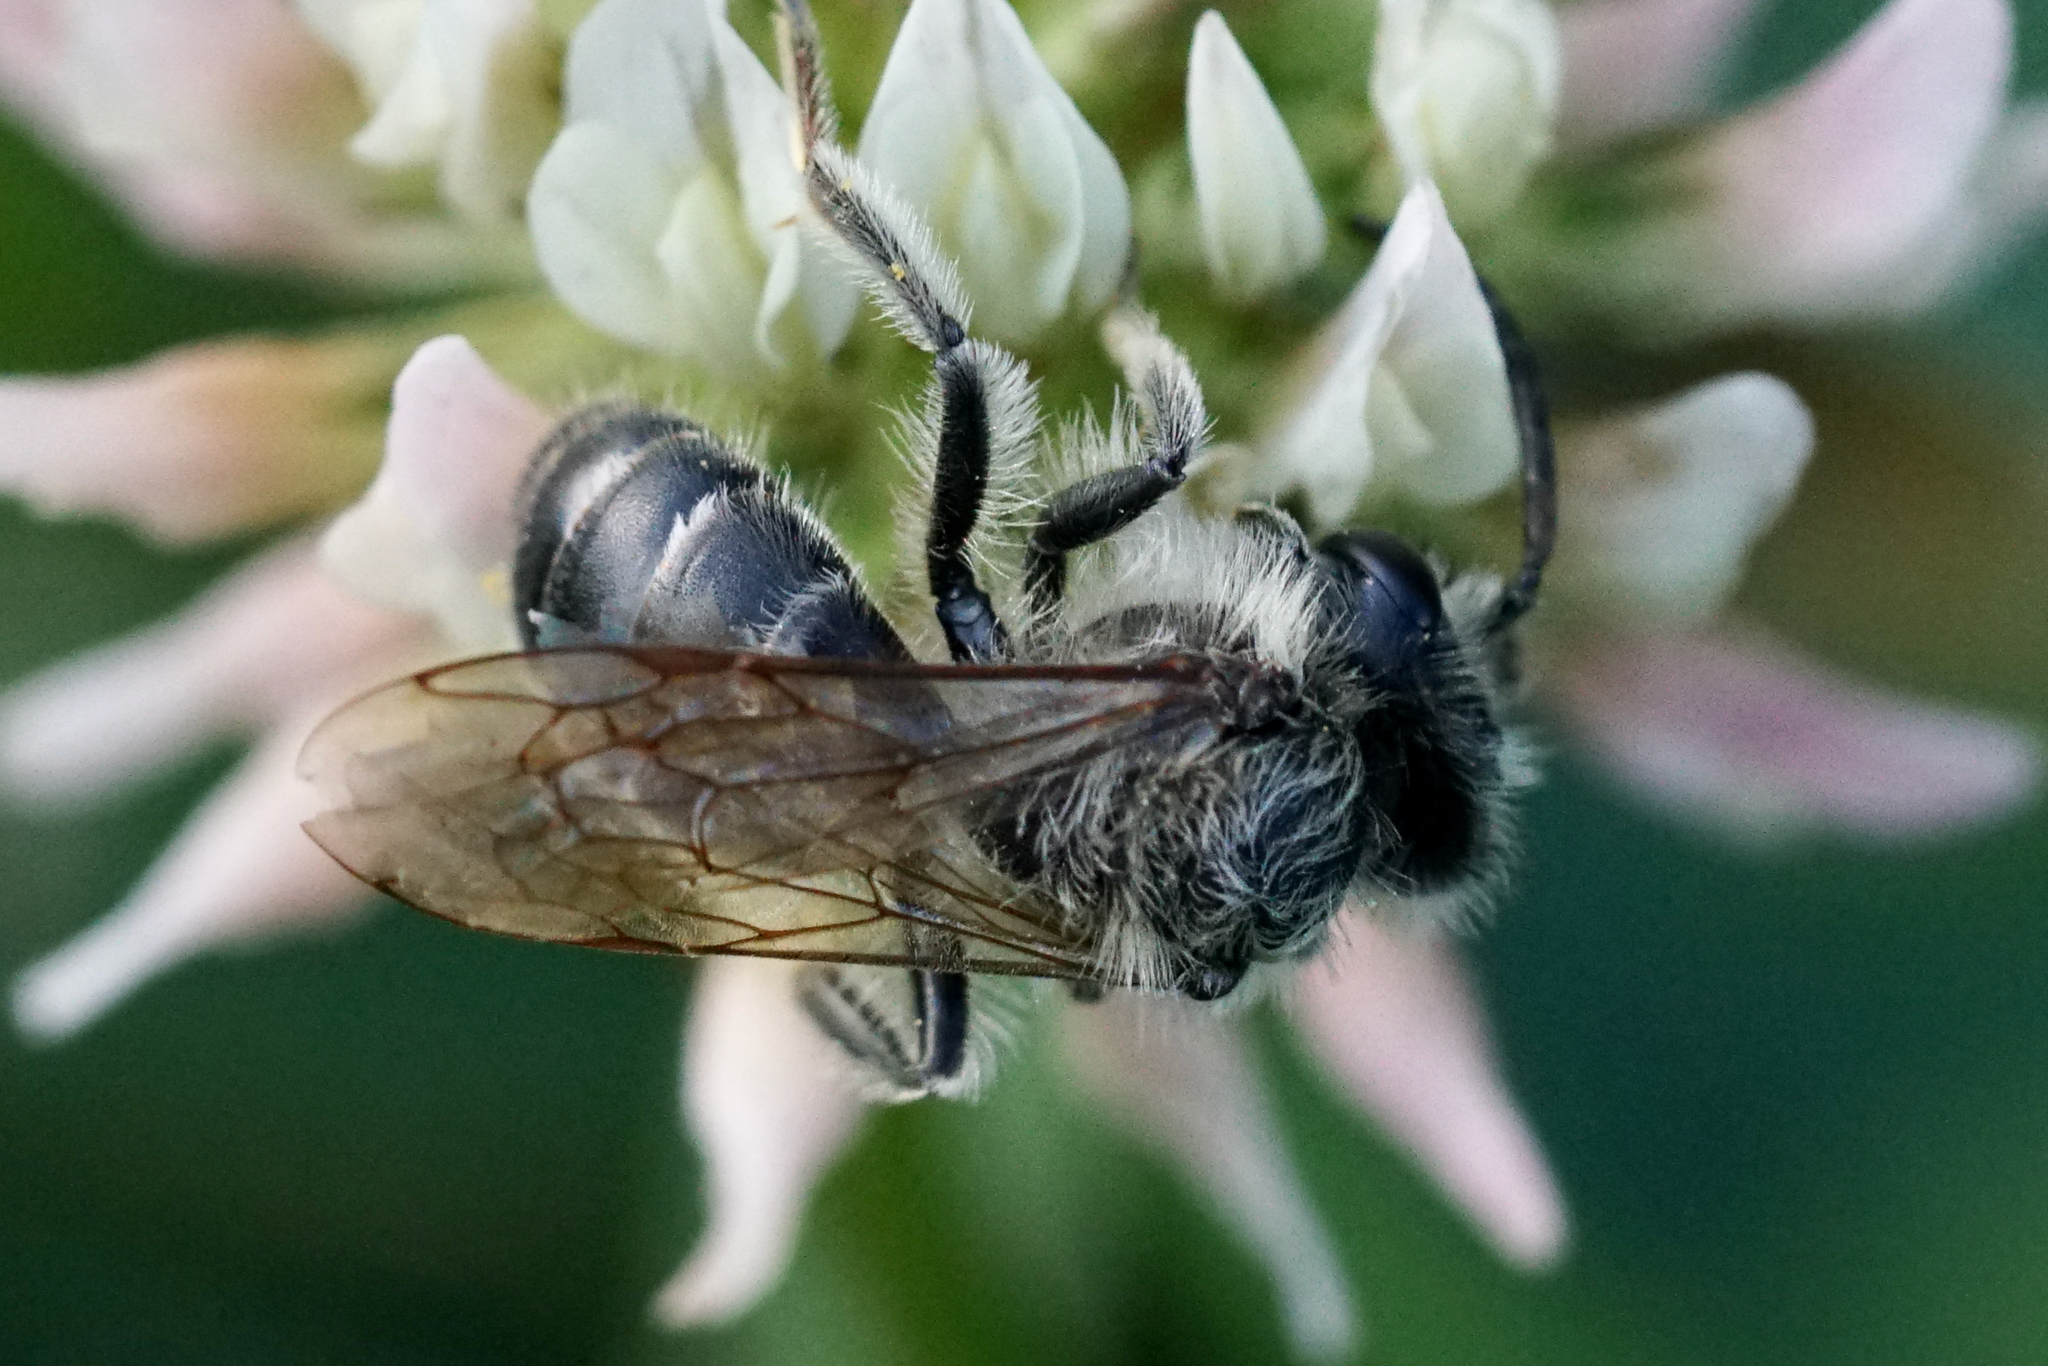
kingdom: Animalia
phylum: Arthropoda
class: Insecta
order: Hymenoptera
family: Andrenidae
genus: Andrena
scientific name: Andrena wilkella
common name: Wilke's mining bee
